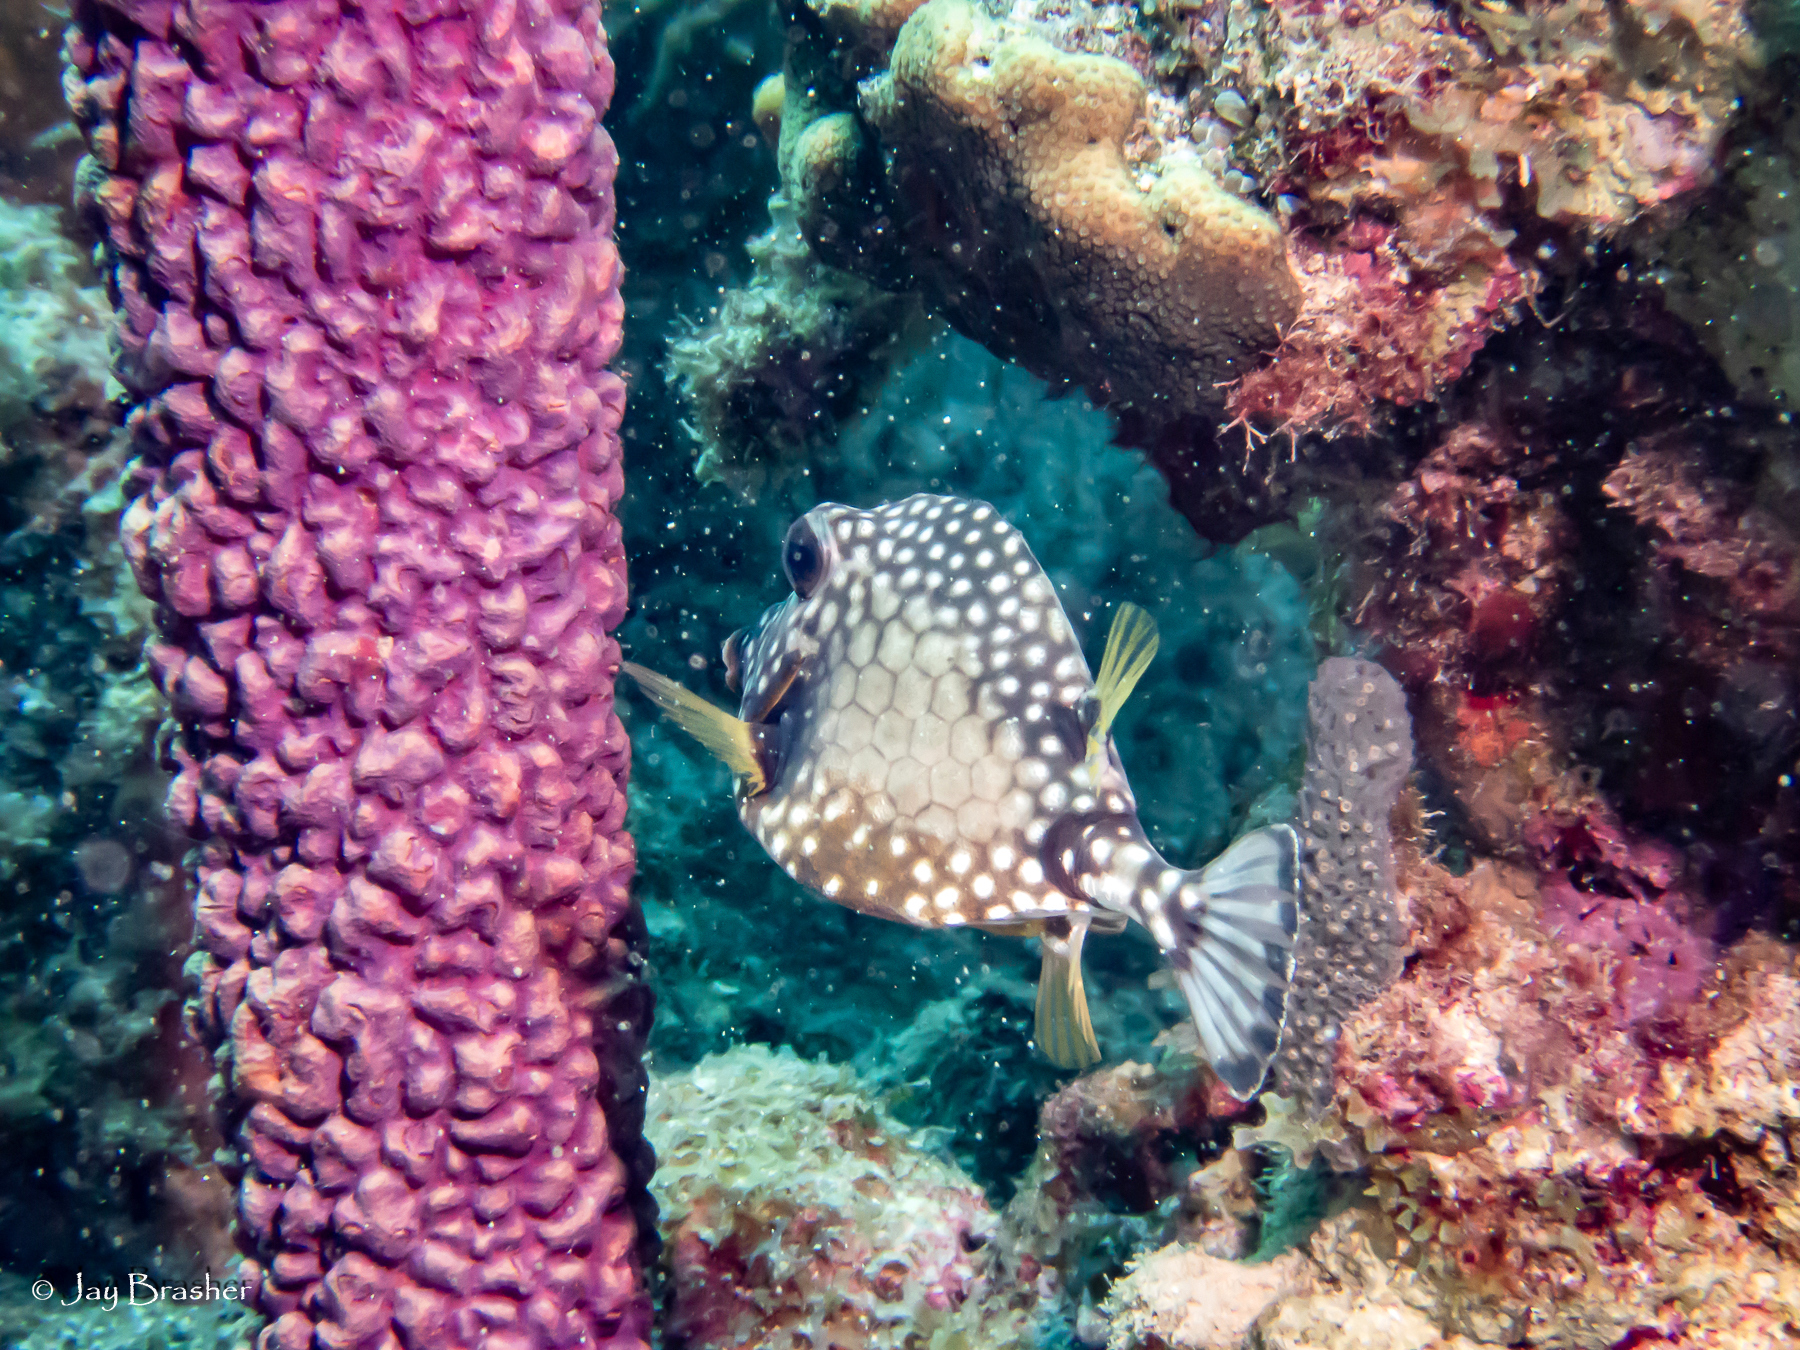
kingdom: Animalia
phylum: Chordata
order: Tetraodontiformes
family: Ostraciidae
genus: Lactophrys
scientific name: Lactophrys triqueter
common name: Smooth trunkfish
